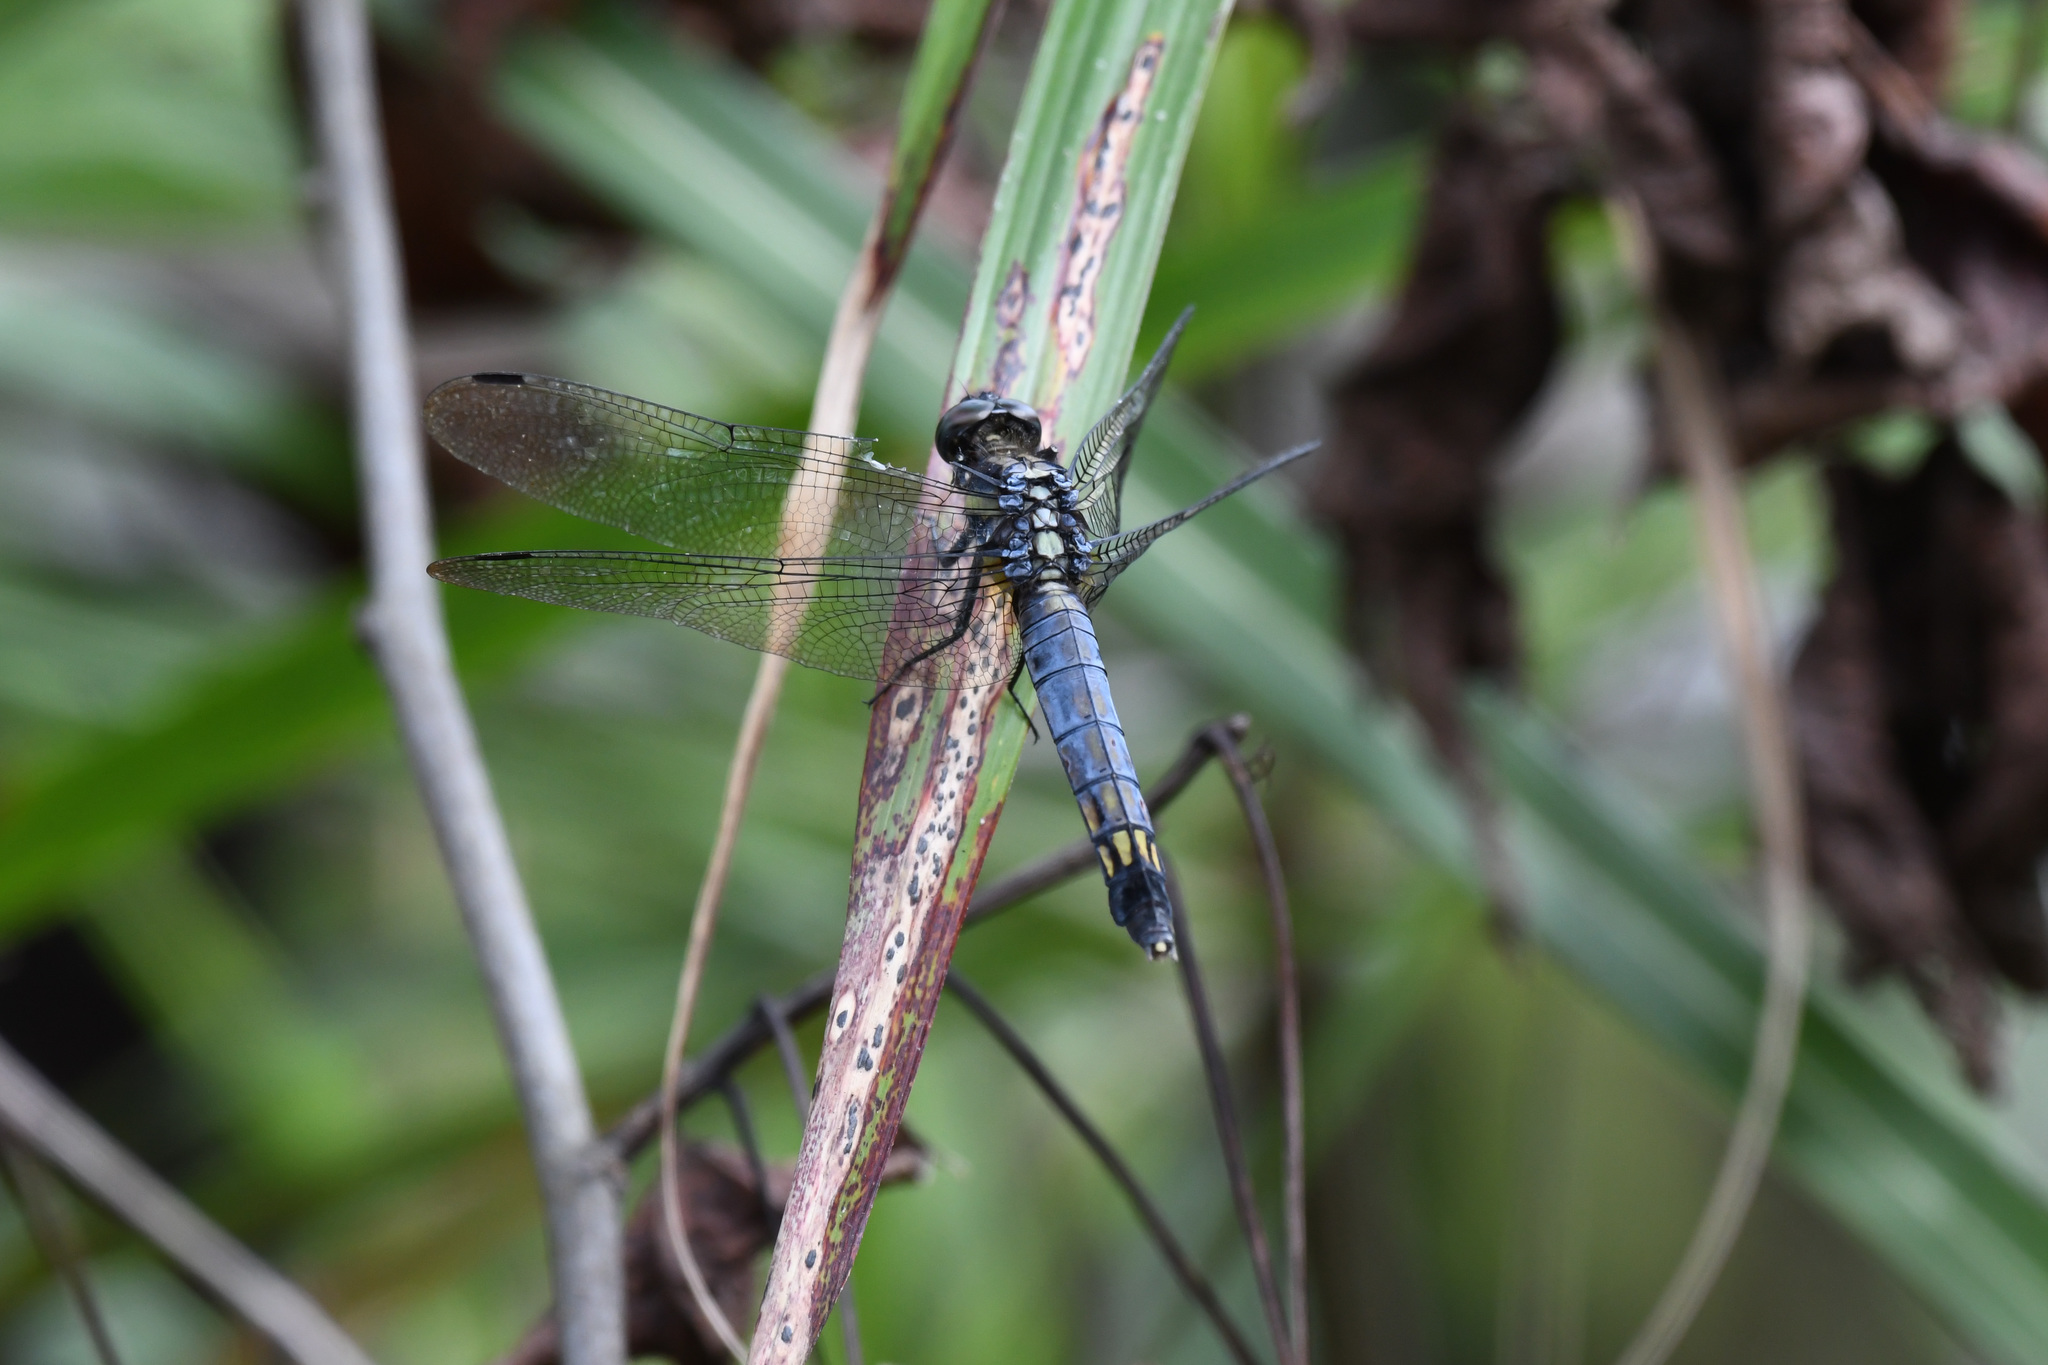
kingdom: Animalia
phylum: Arthropoda
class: Insecta
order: Odonata
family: Libellulidae
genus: Orthetrum
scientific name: Orthetrum melania
